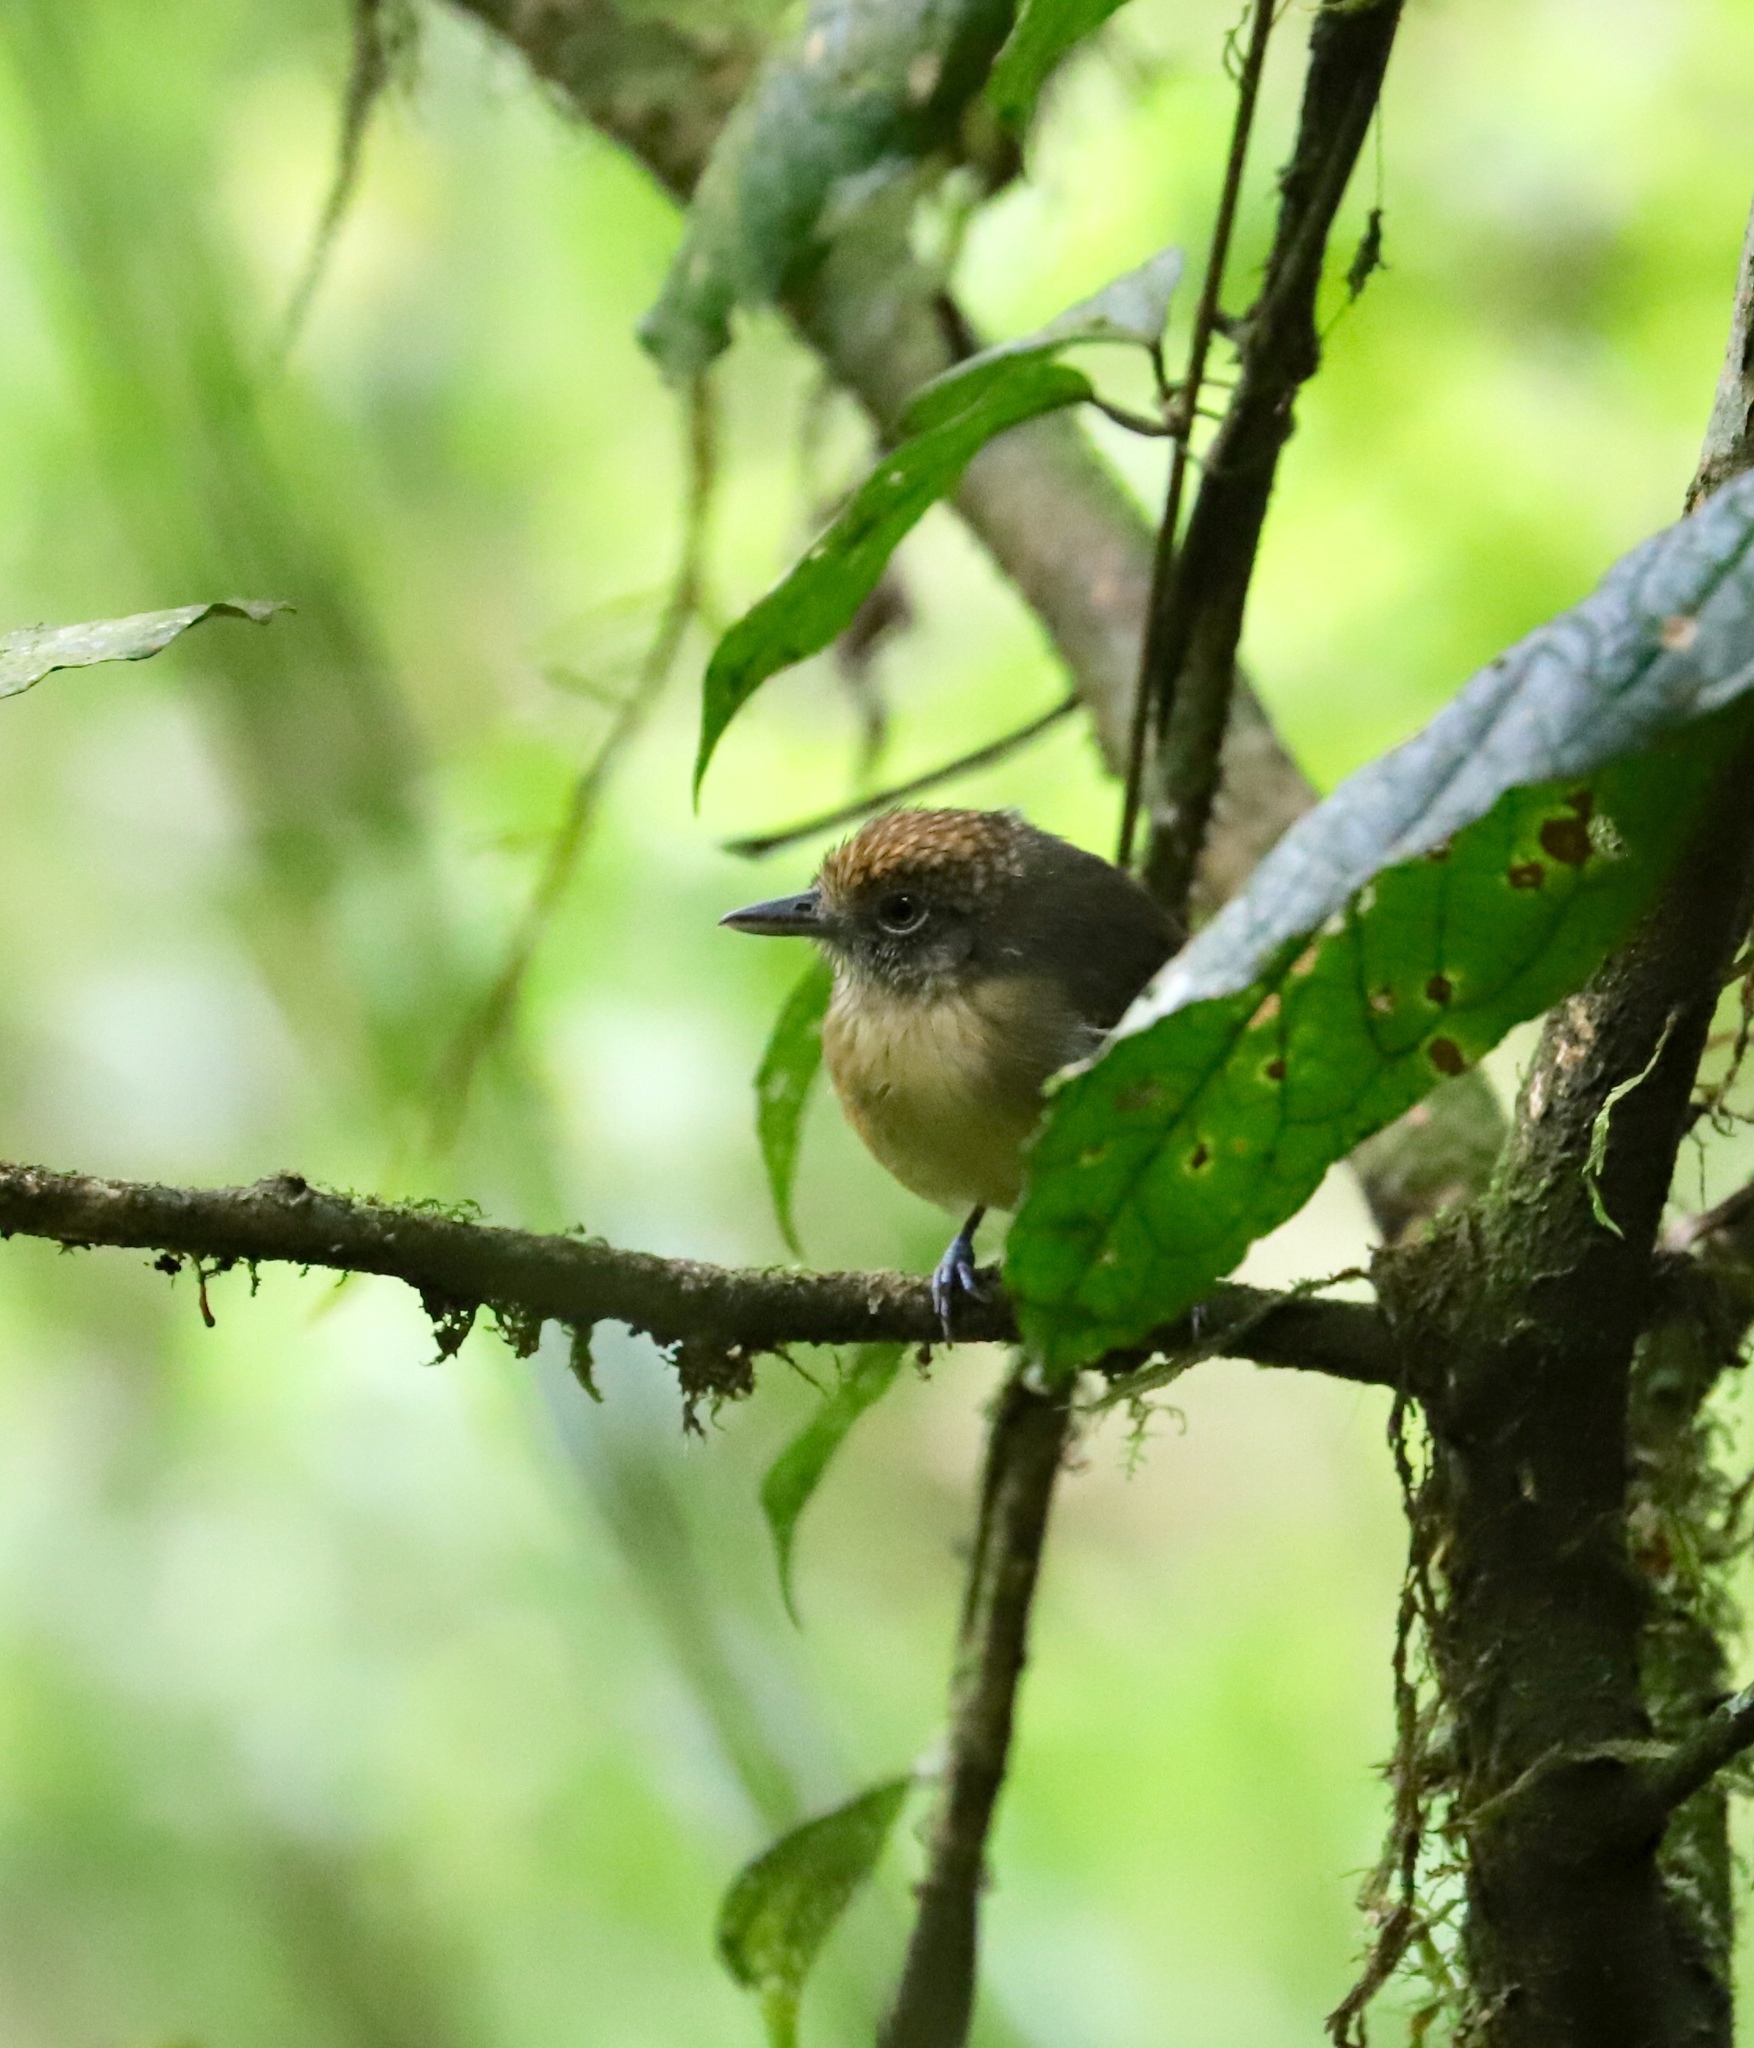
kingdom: Animalia
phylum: Chordata
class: Aves
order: Passeriformes
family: Thamnophilidae
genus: Dysithamnus
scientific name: Dysithamnus puncticeps
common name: Spot-crowned antvireo
